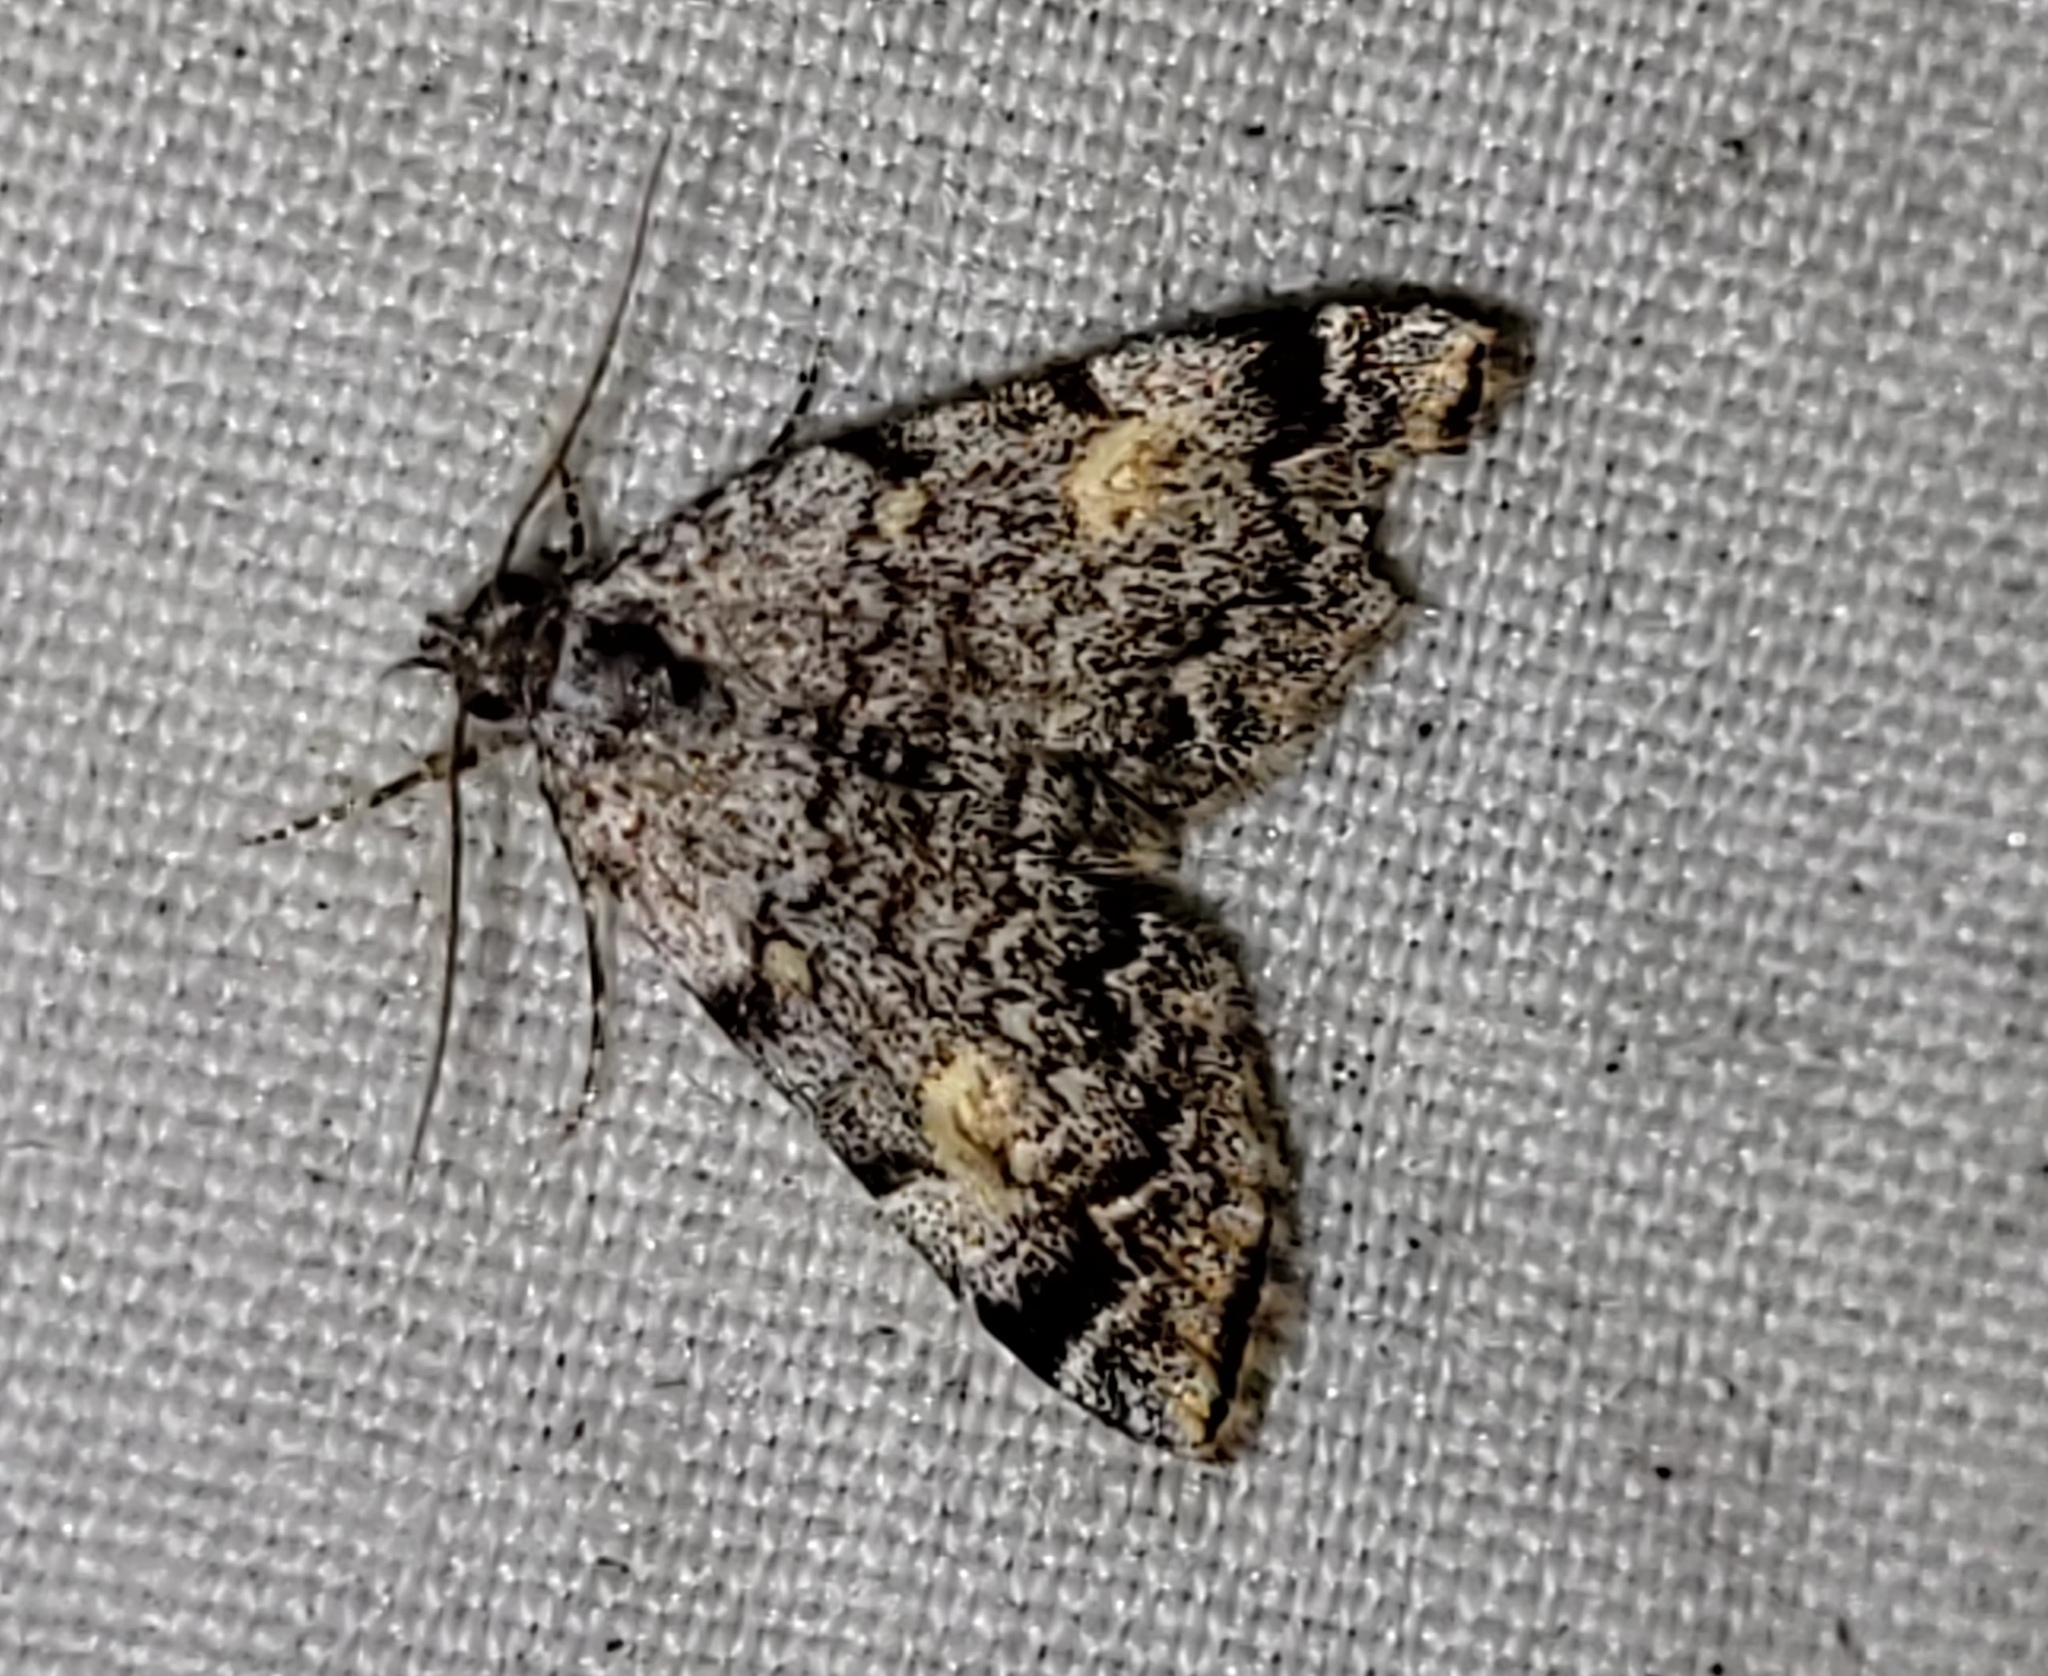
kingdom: Animalia
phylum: Arthropoda
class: Insecta
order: Lepidoptera
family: Erebidae
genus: Idia
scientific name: Idia americalis
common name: American idia moth
